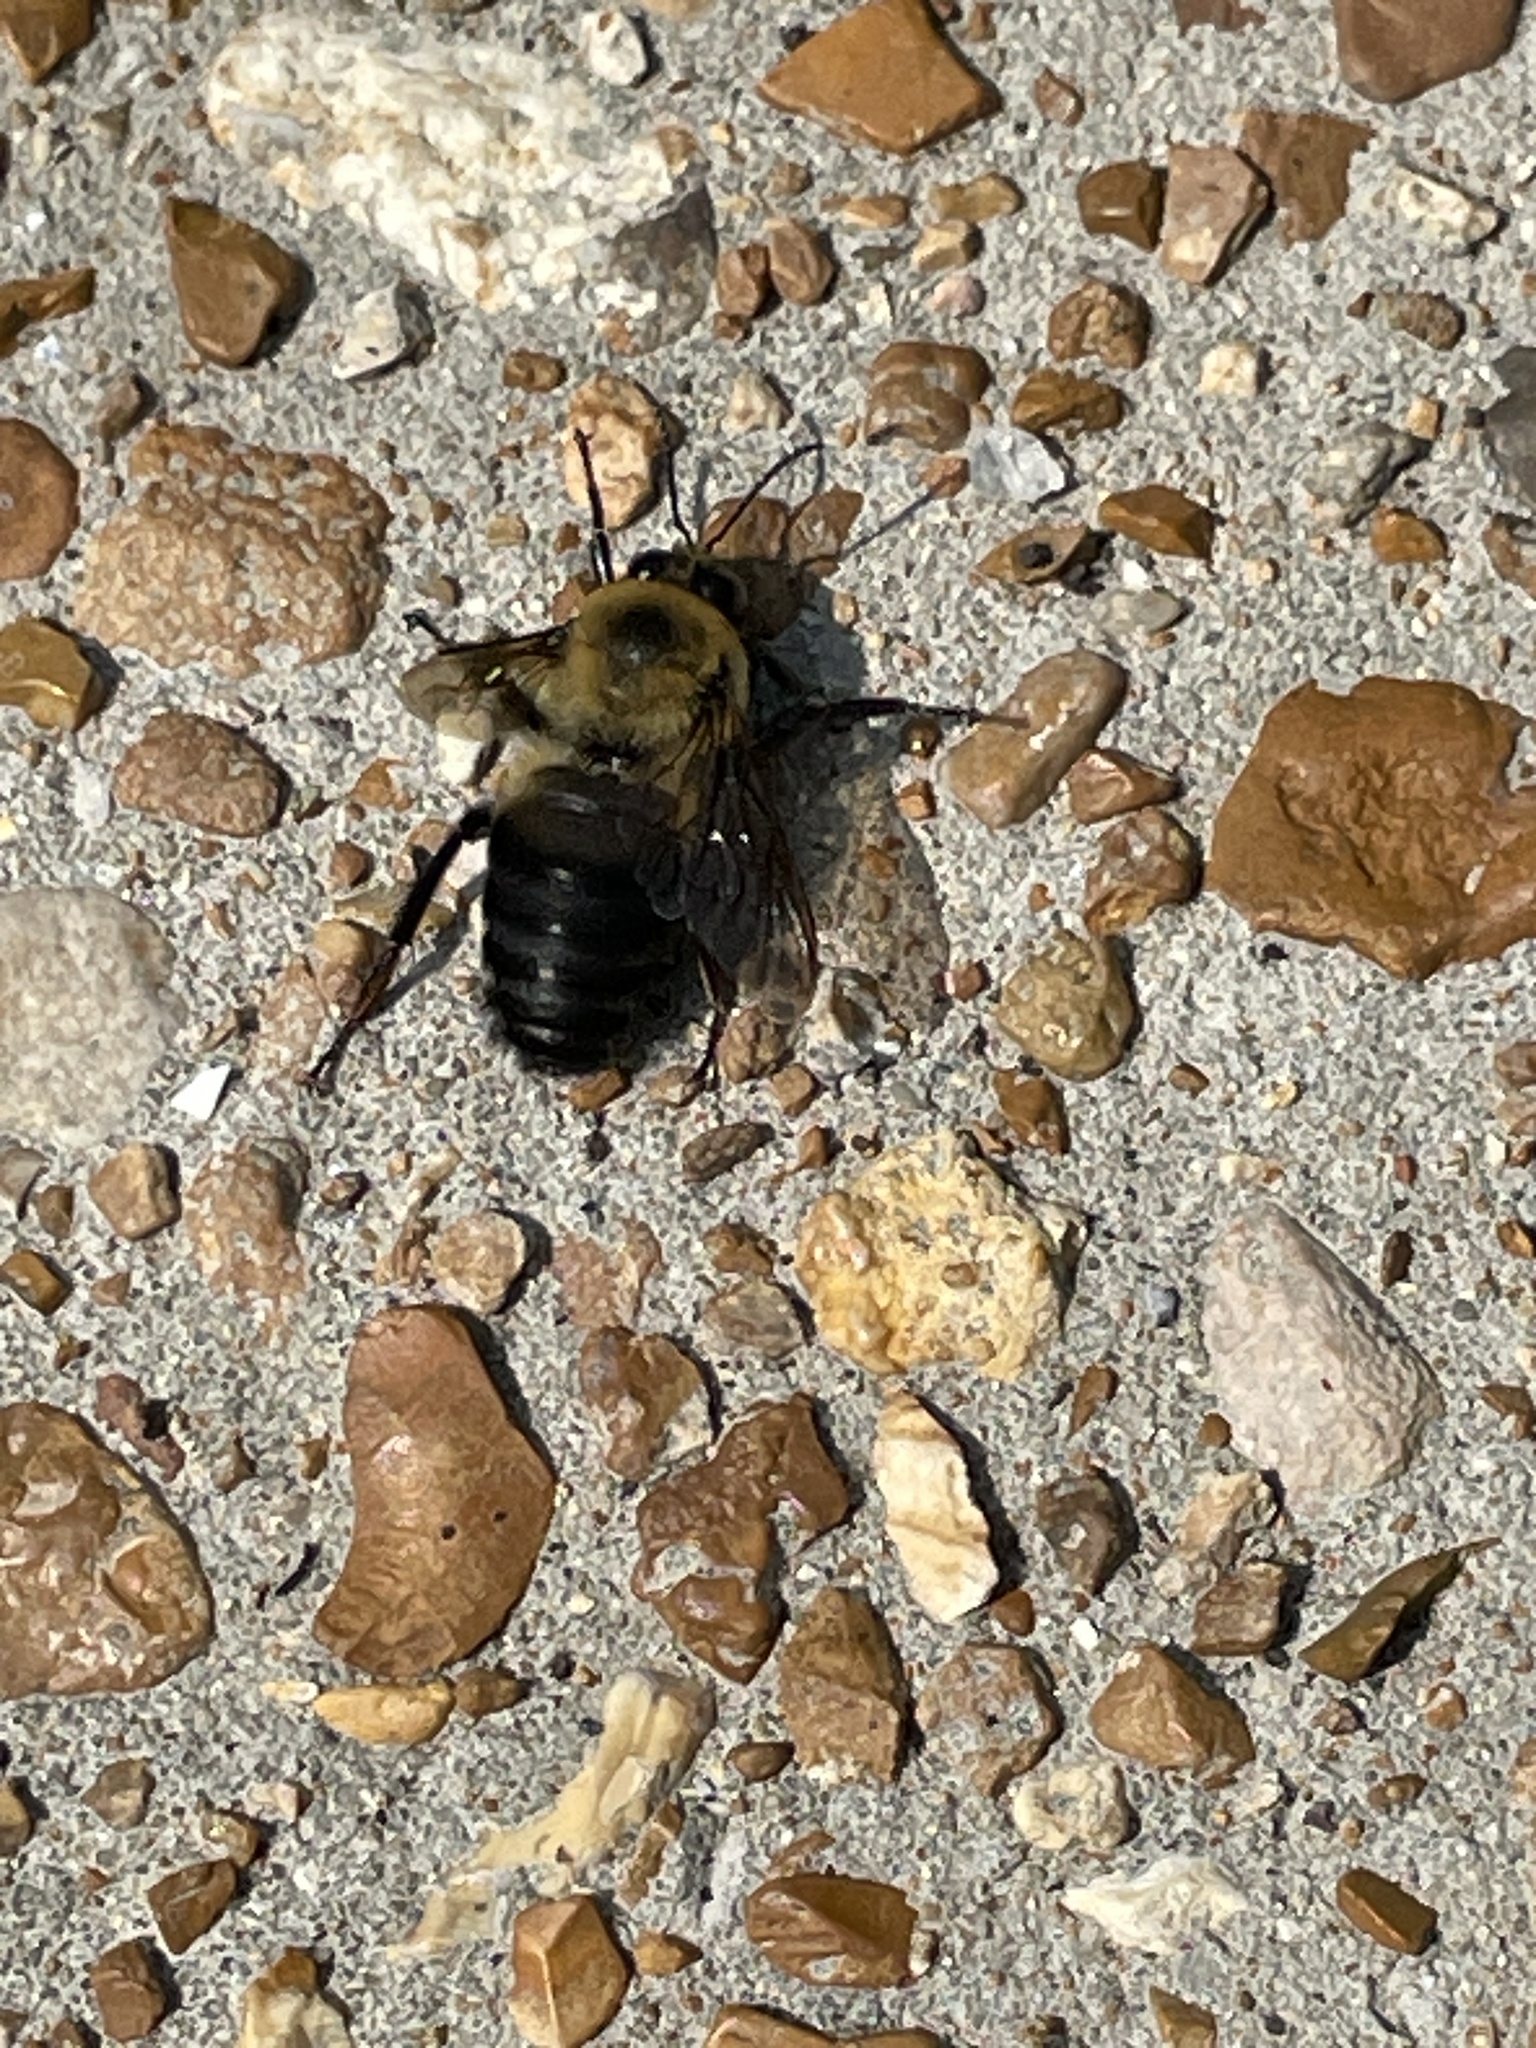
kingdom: Animalia
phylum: Arthropoda
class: Insecta
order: Hymenoptera
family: Apidae
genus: Bombus
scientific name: Bombus griseocollis
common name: Brown-belted bumble bee
